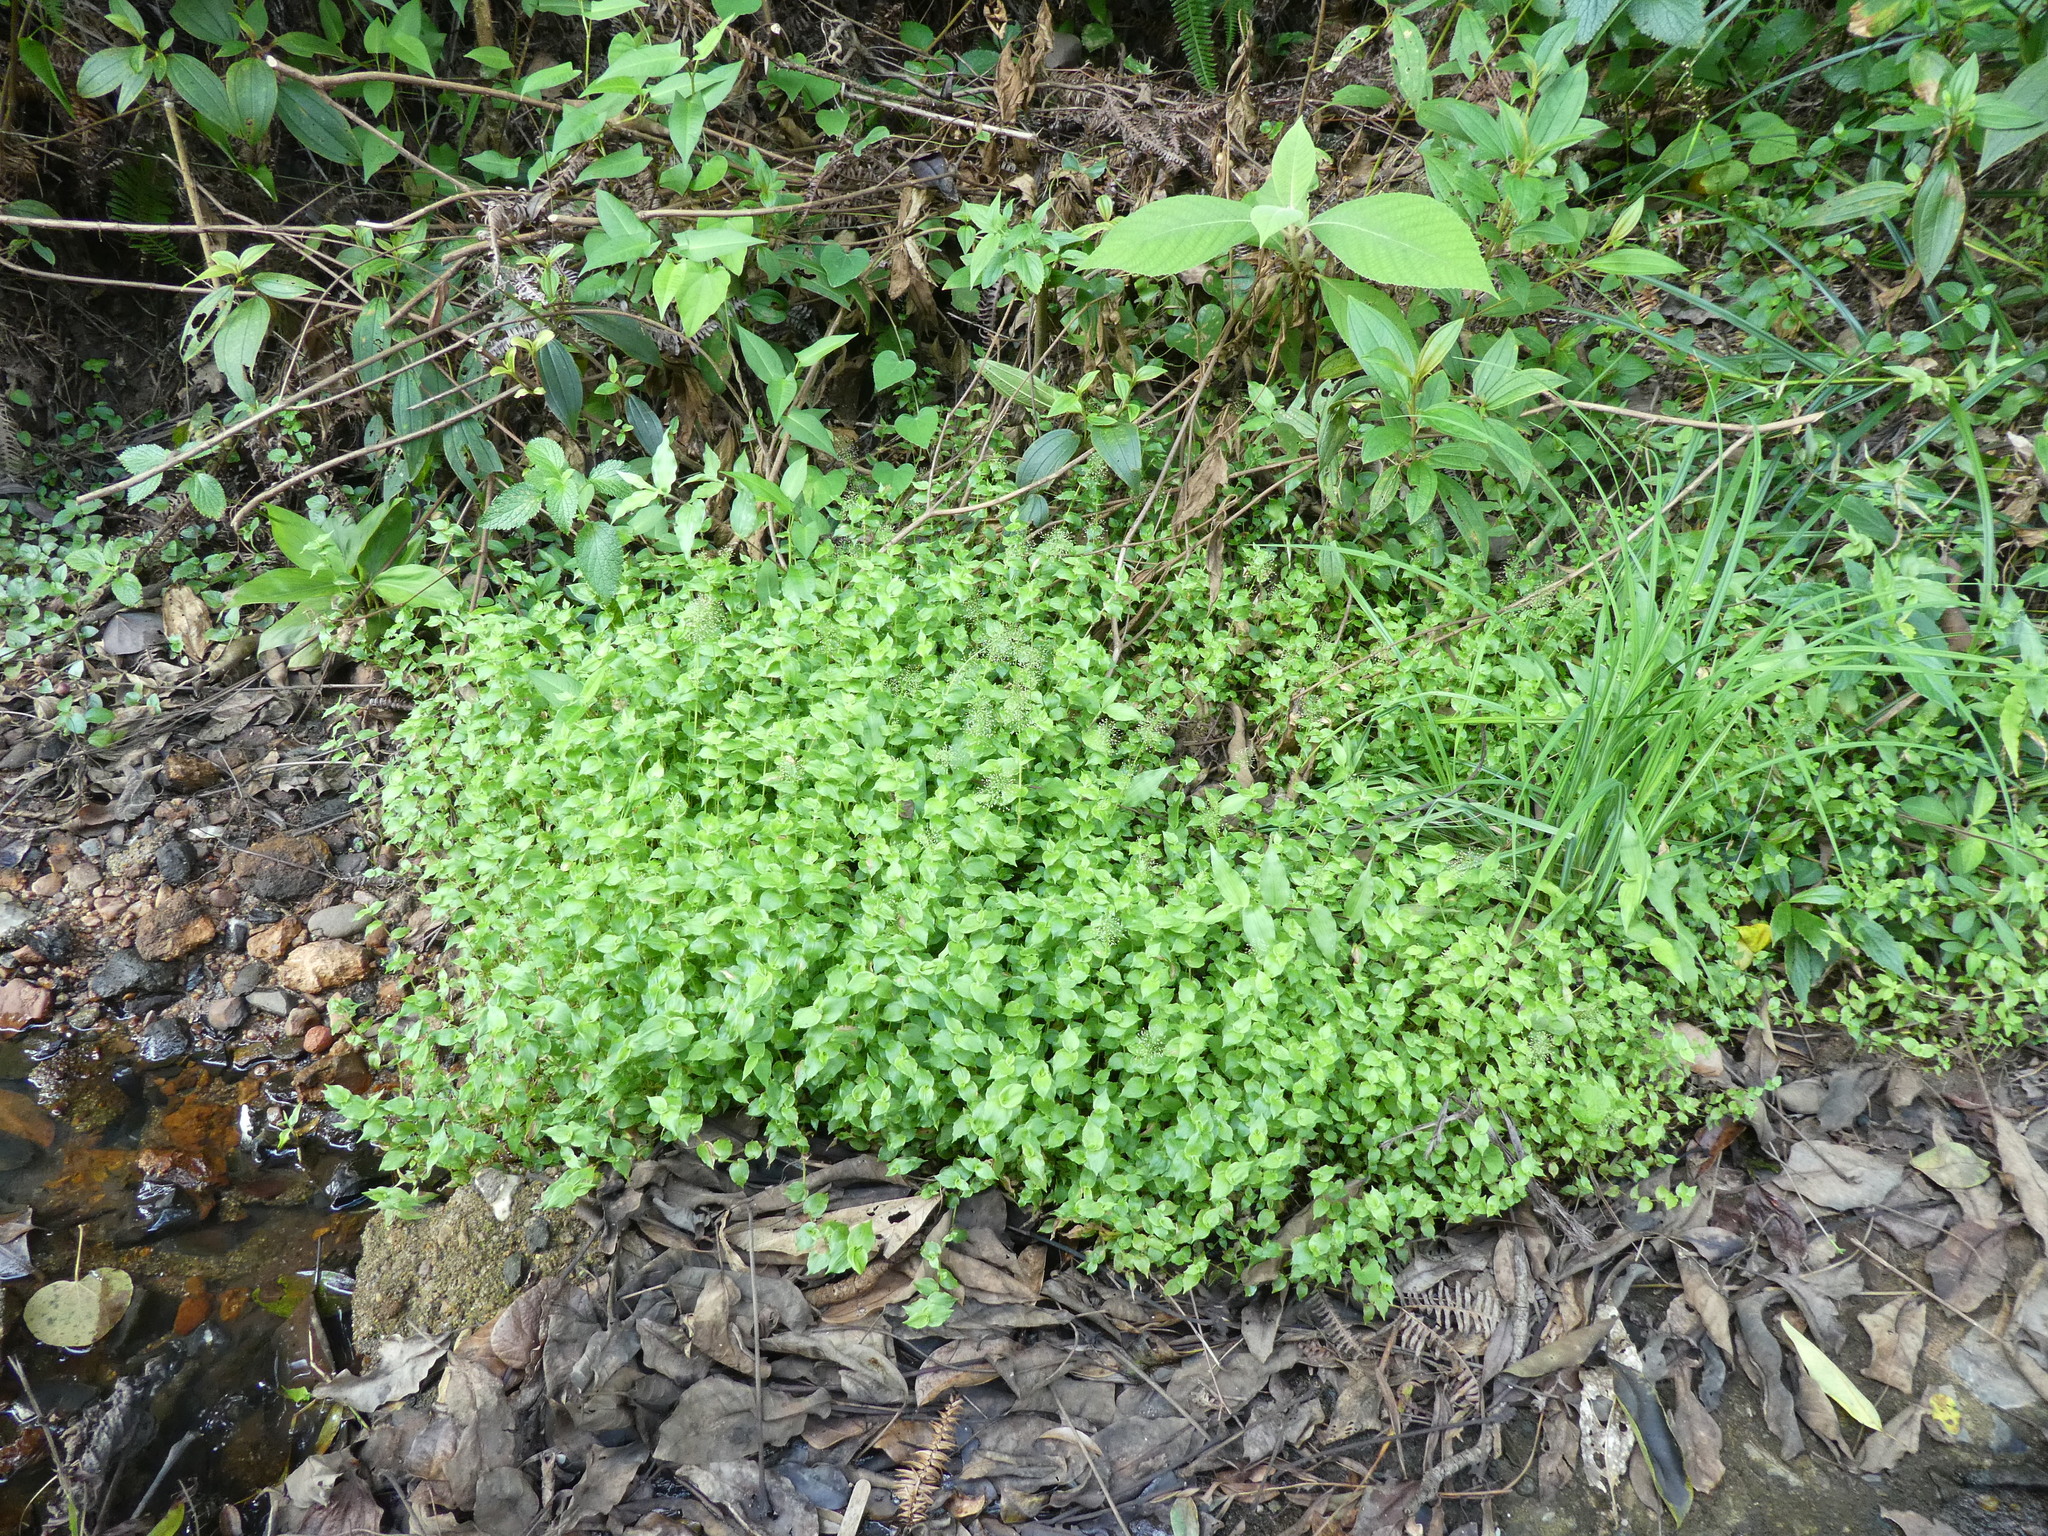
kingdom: Plantae
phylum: Tracheophyta
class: Liliopsida
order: Poales
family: Poaceae
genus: Sphaerocaryum
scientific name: Sphaerocaryum malaccense
